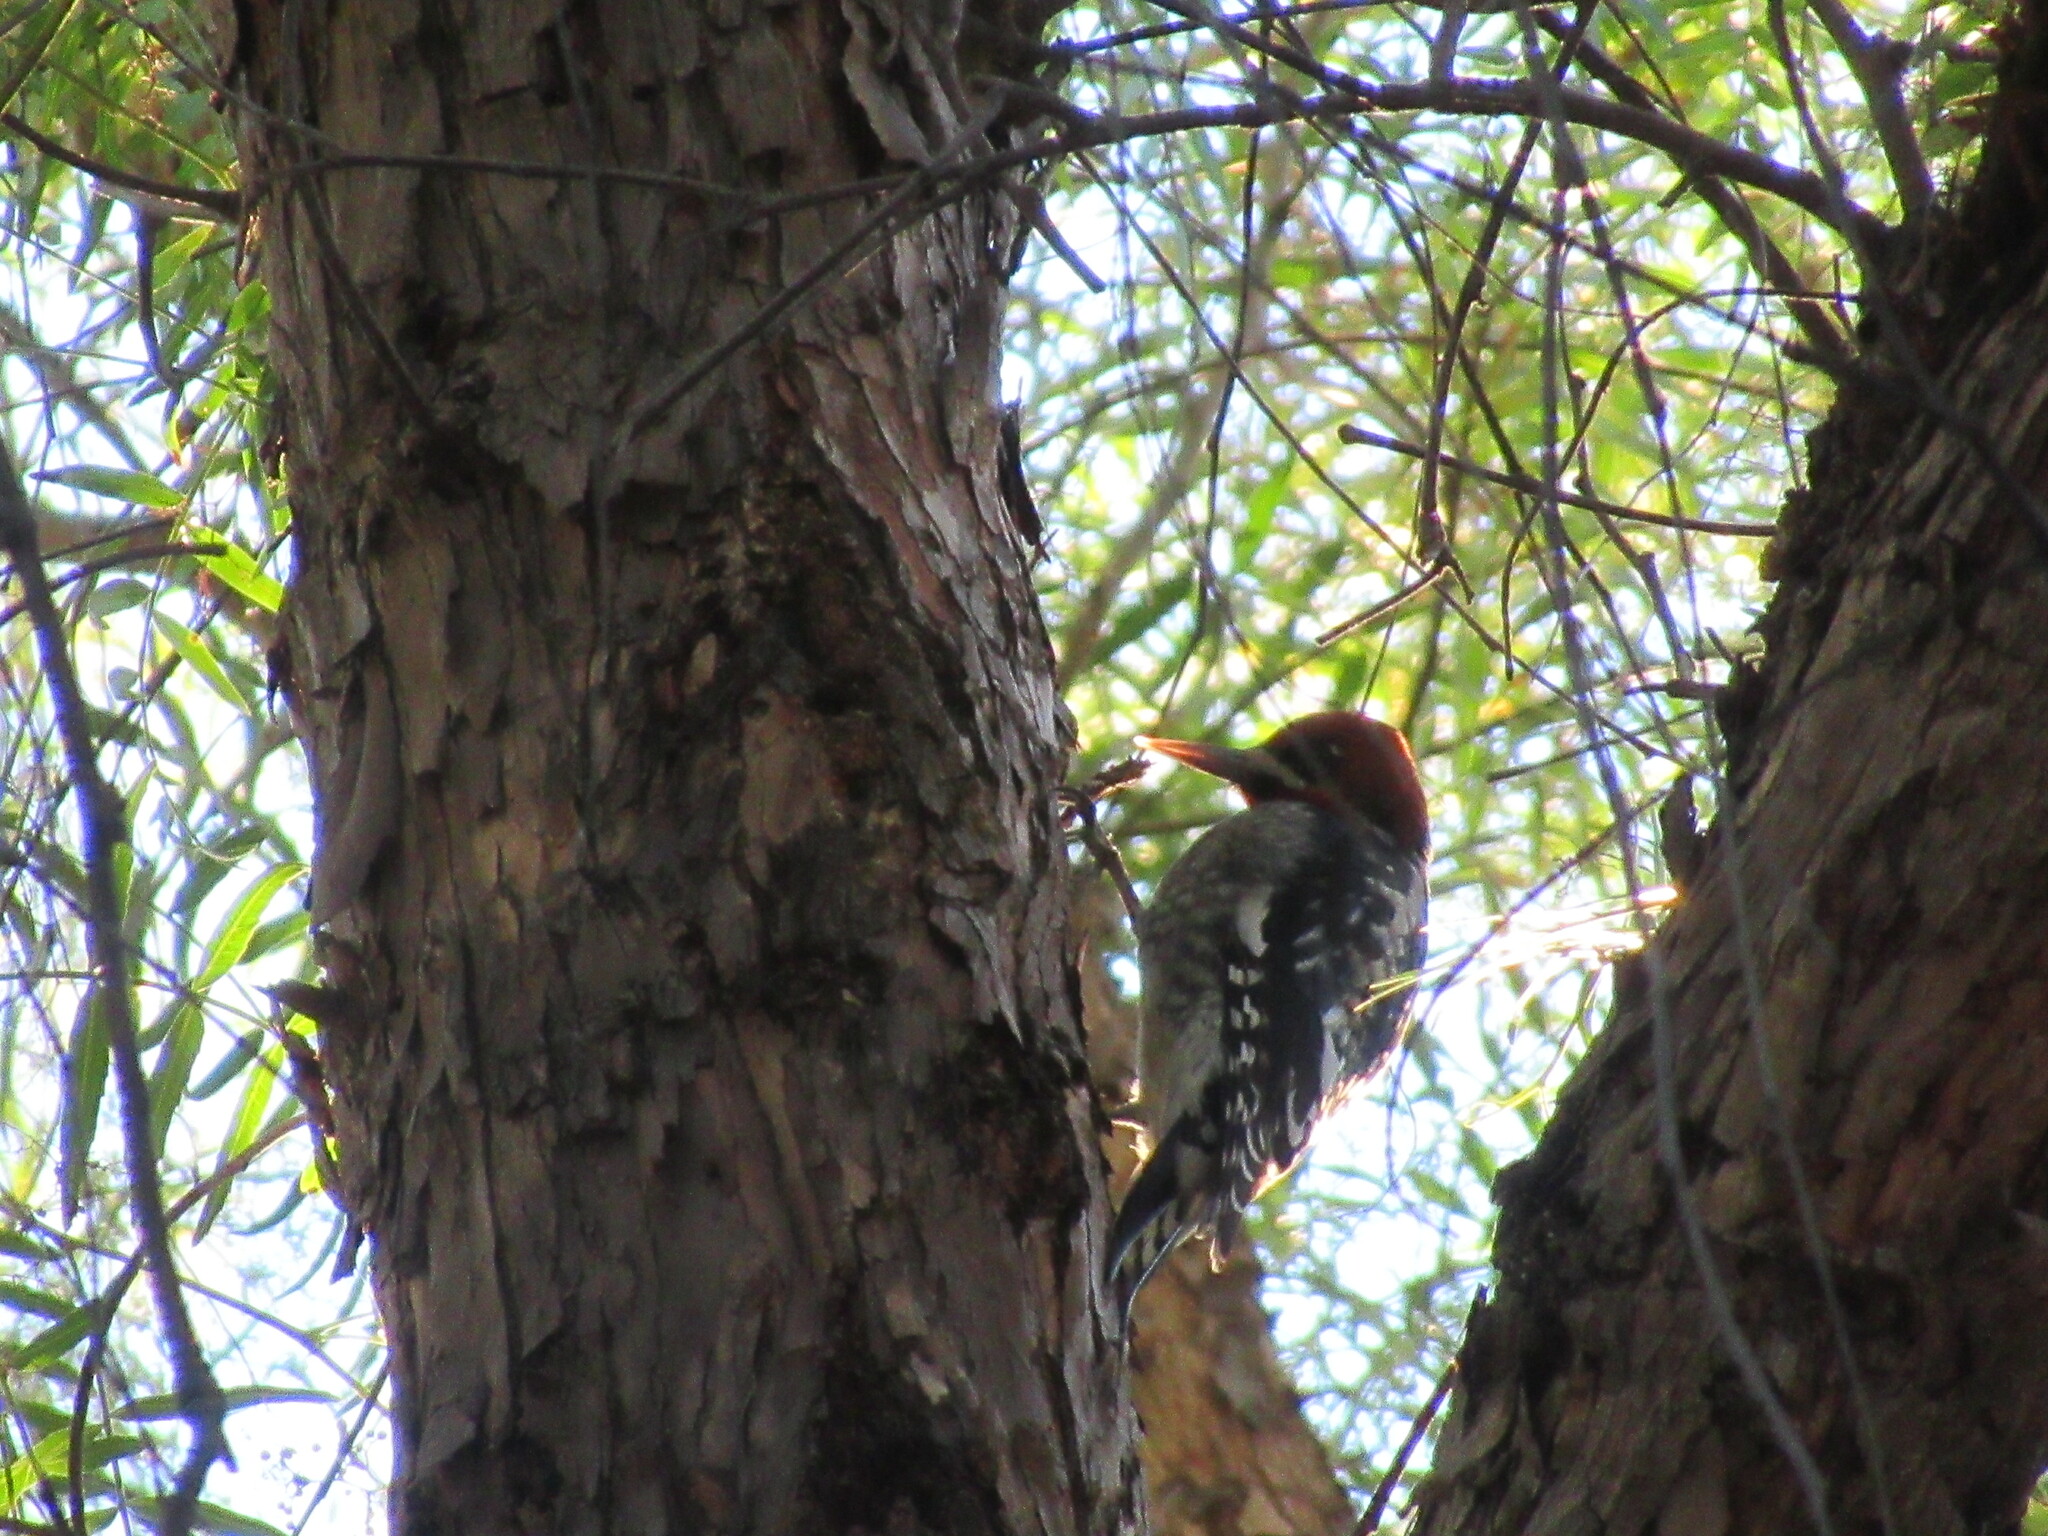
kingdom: Animalia
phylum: Chordata
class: Aves
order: Piciformes
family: Picidae
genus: Sphyrapicus
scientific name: Sphyrapicus ruber
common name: Red-breasted sapsucker
